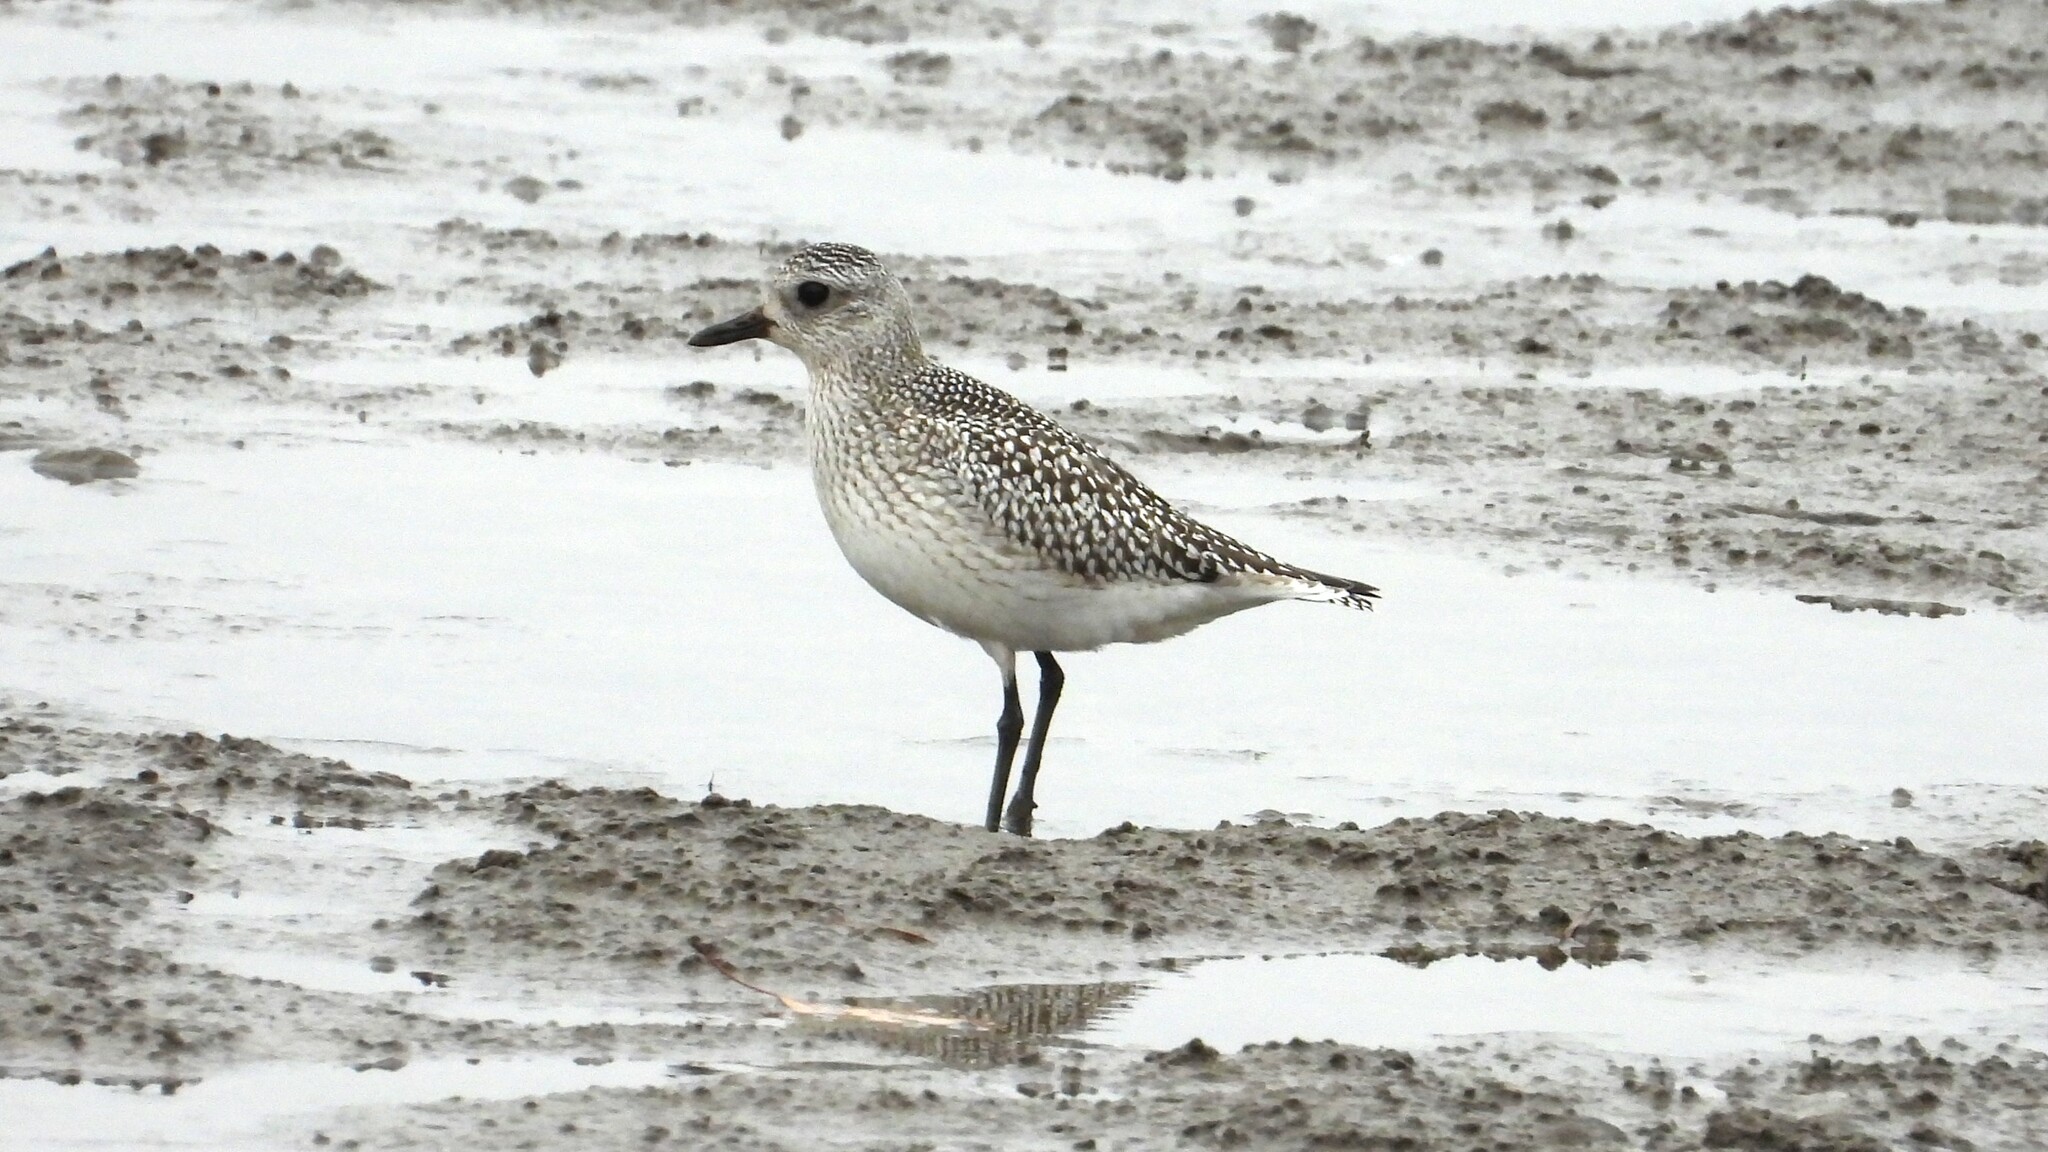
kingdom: Animalia
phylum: Chordata
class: Aves
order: Charadriiformes
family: Charadriidae
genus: Pluvialis
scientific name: Pluvialis squatarola
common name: Grey plover
